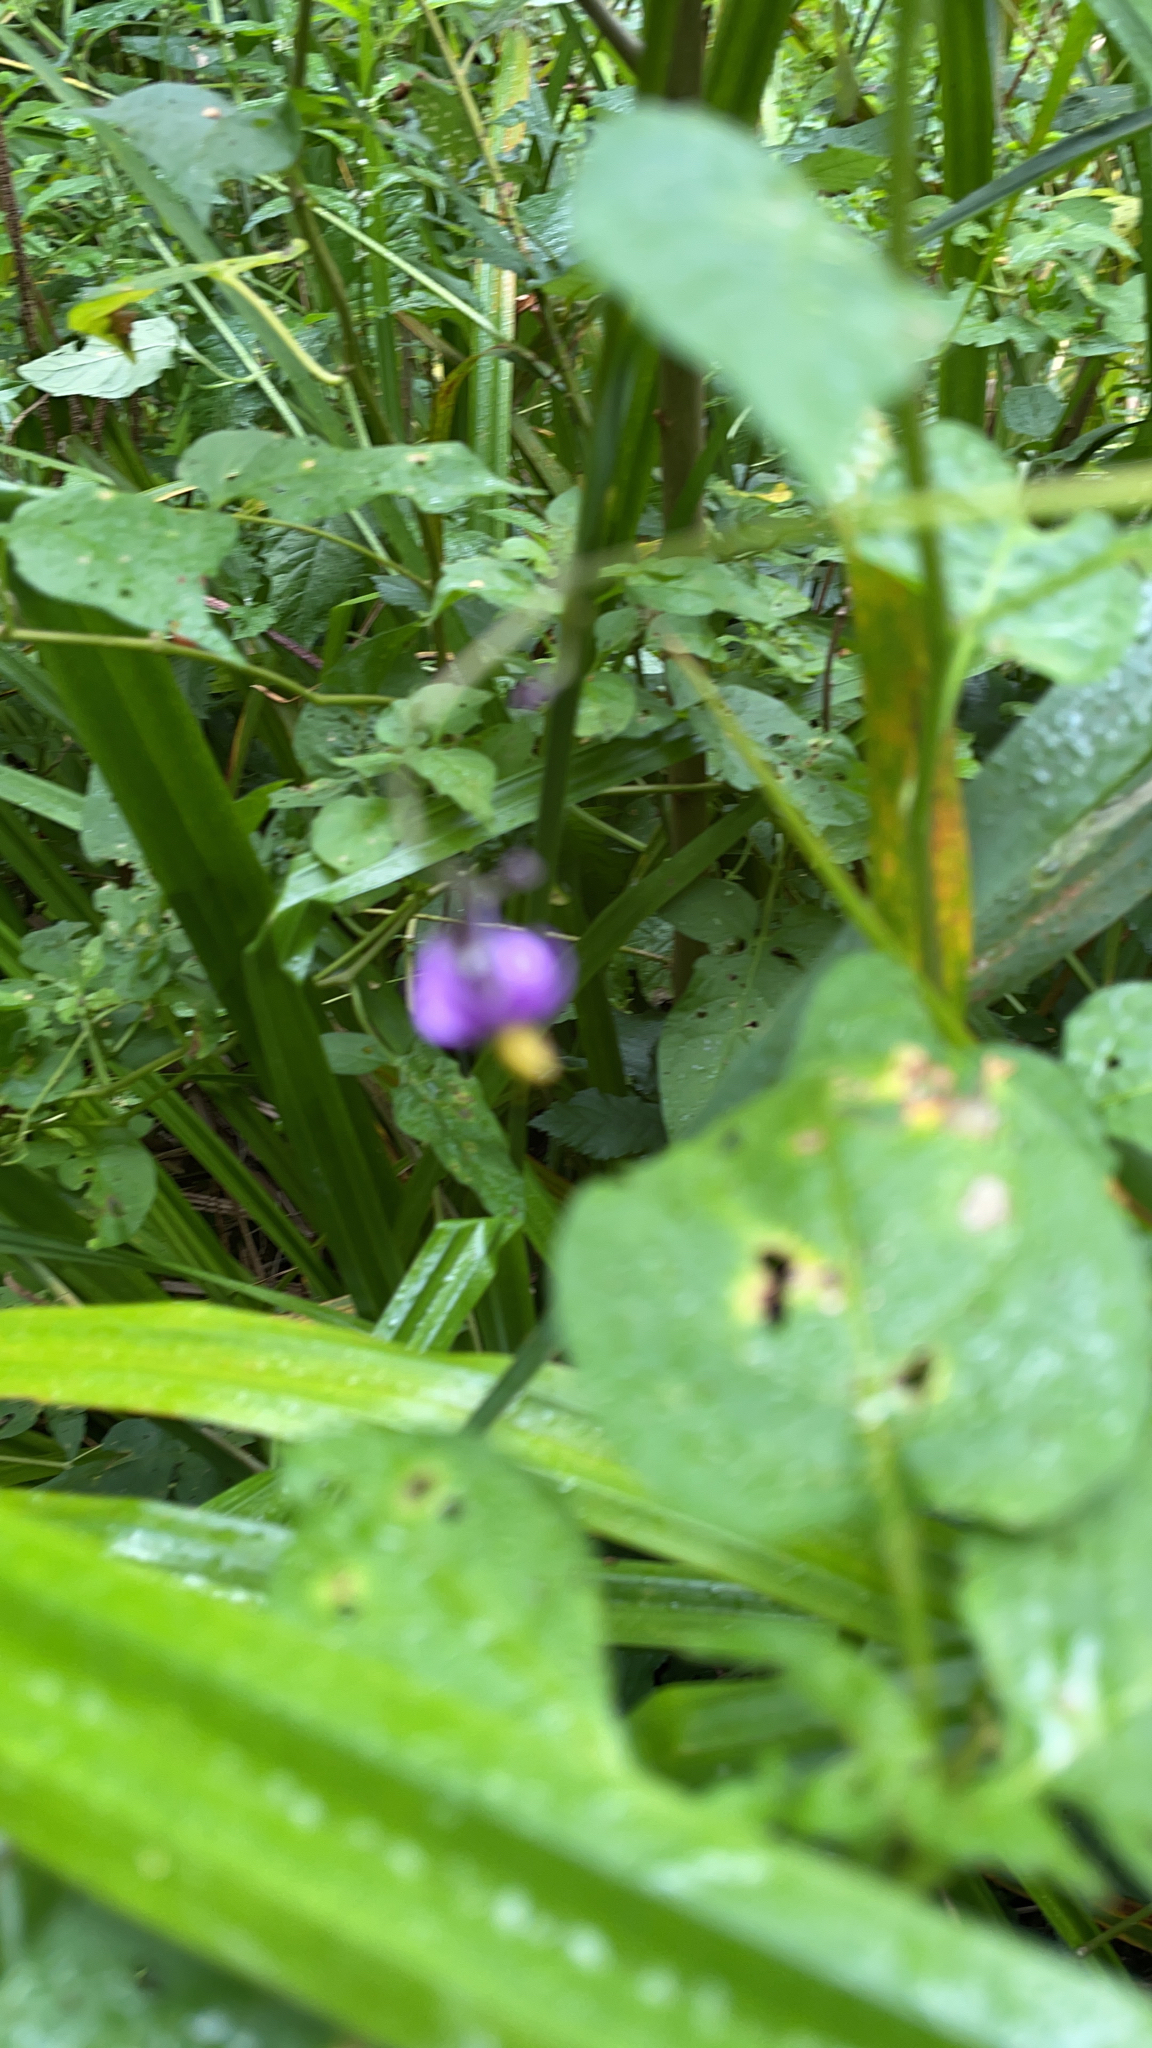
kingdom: Plantae
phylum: Tracheophyta
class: Magnoliopsida
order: Solanales
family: Solanaceae
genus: Solanum
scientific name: Solanum dulcamara
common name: Climbing nightshade
